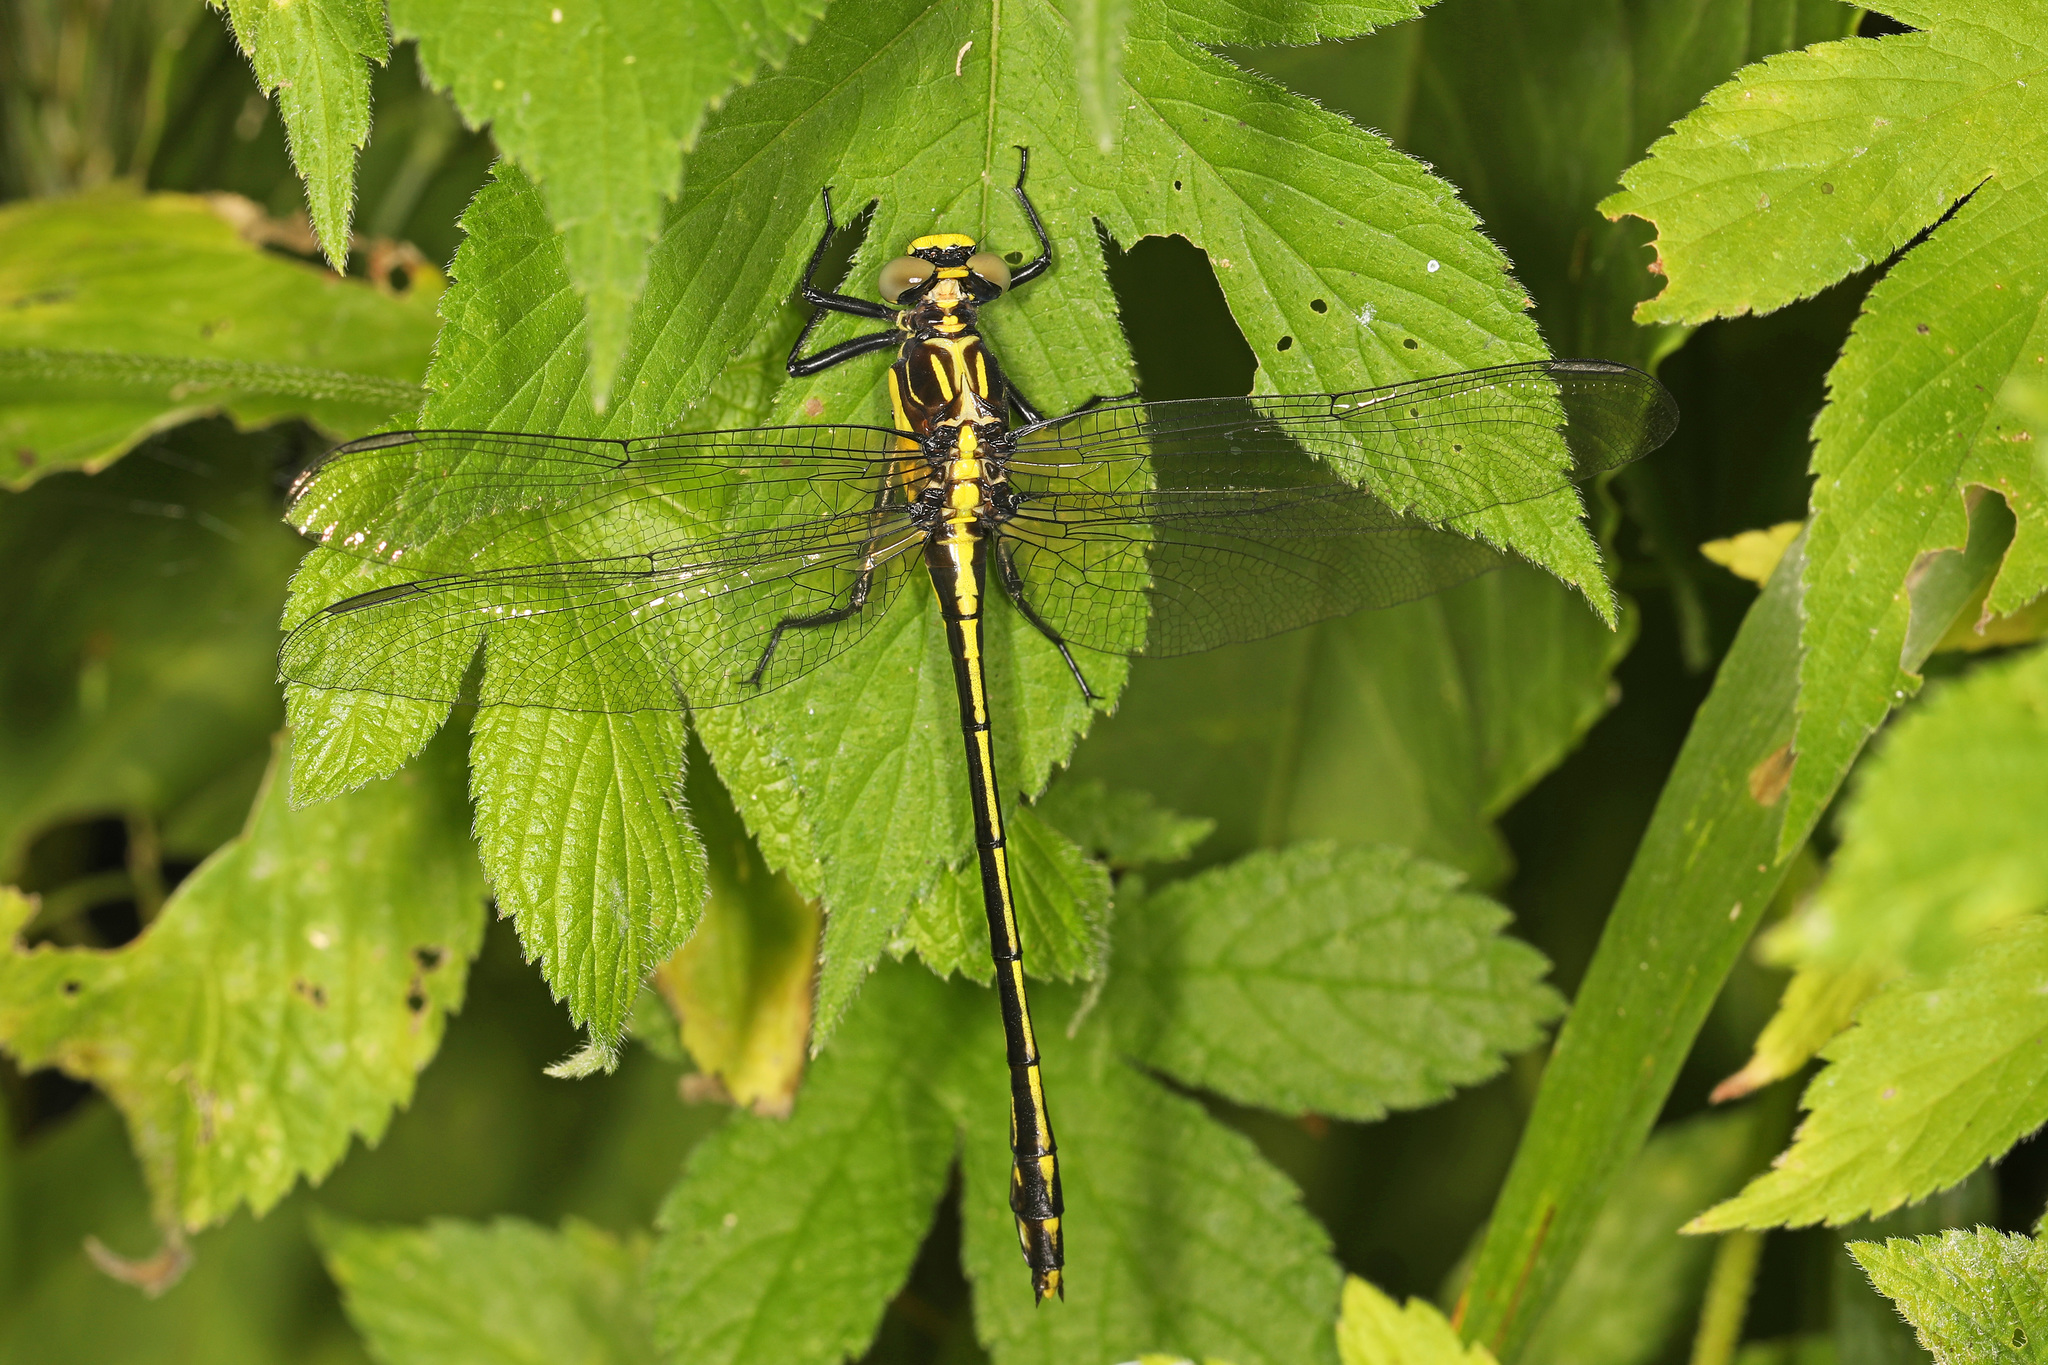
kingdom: Animalia
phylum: Arthropoda
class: Insecta
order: Odonata
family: Gomphidae
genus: Dromogomphus
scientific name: Dromogomphus spinosus
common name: Black-shouldered spinyleg
